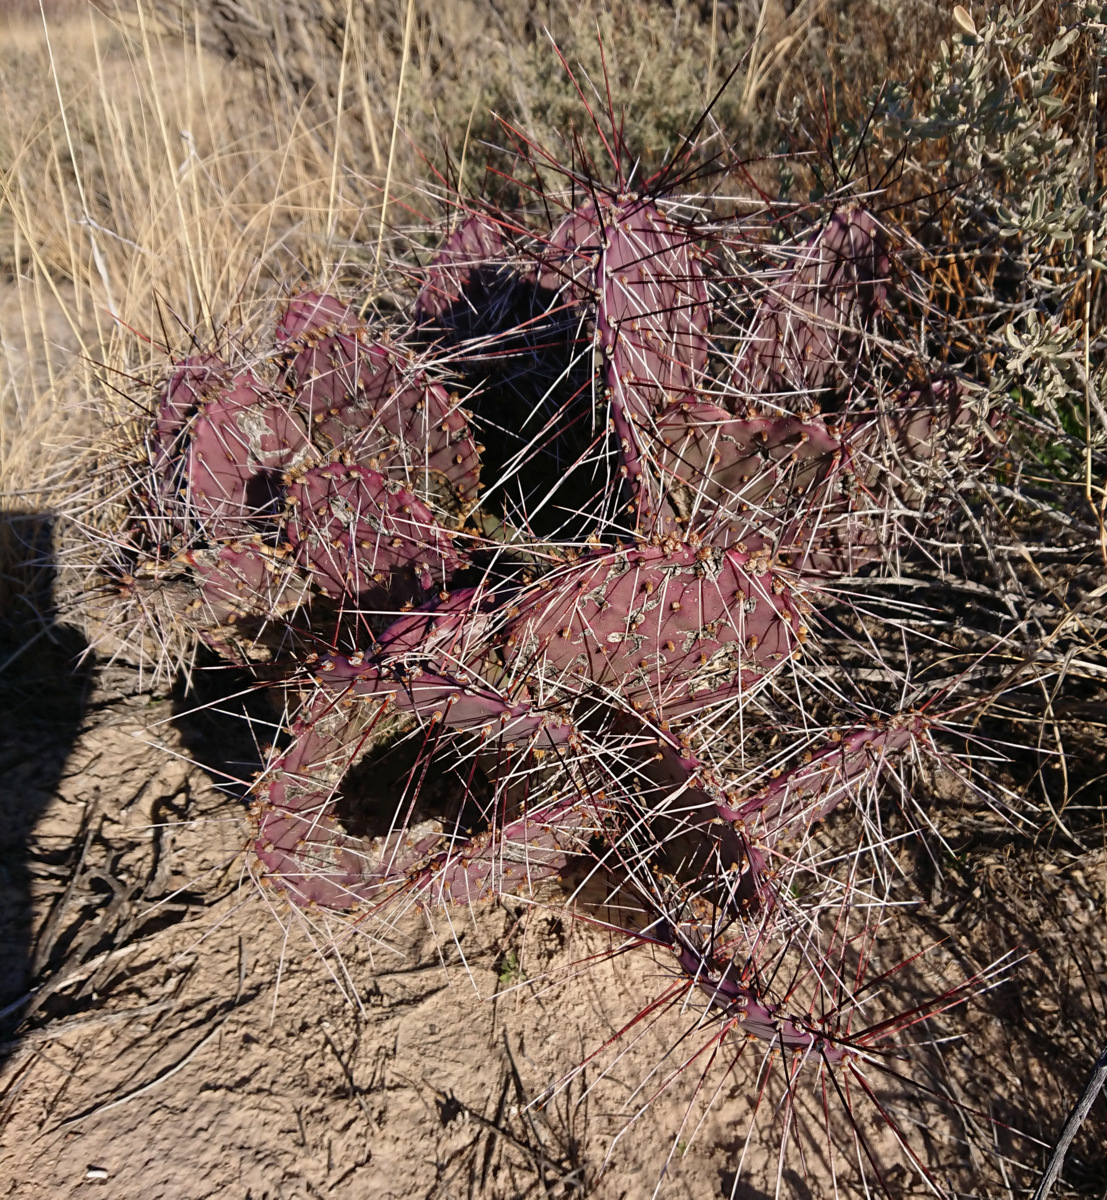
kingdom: Plantae
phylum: Tracheophyta
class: Magnoliopsida
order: Caryophyllales
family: Cactaceae
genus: Opuntia
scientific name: Opuntia macrocentra
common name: Purple prickly-pear
